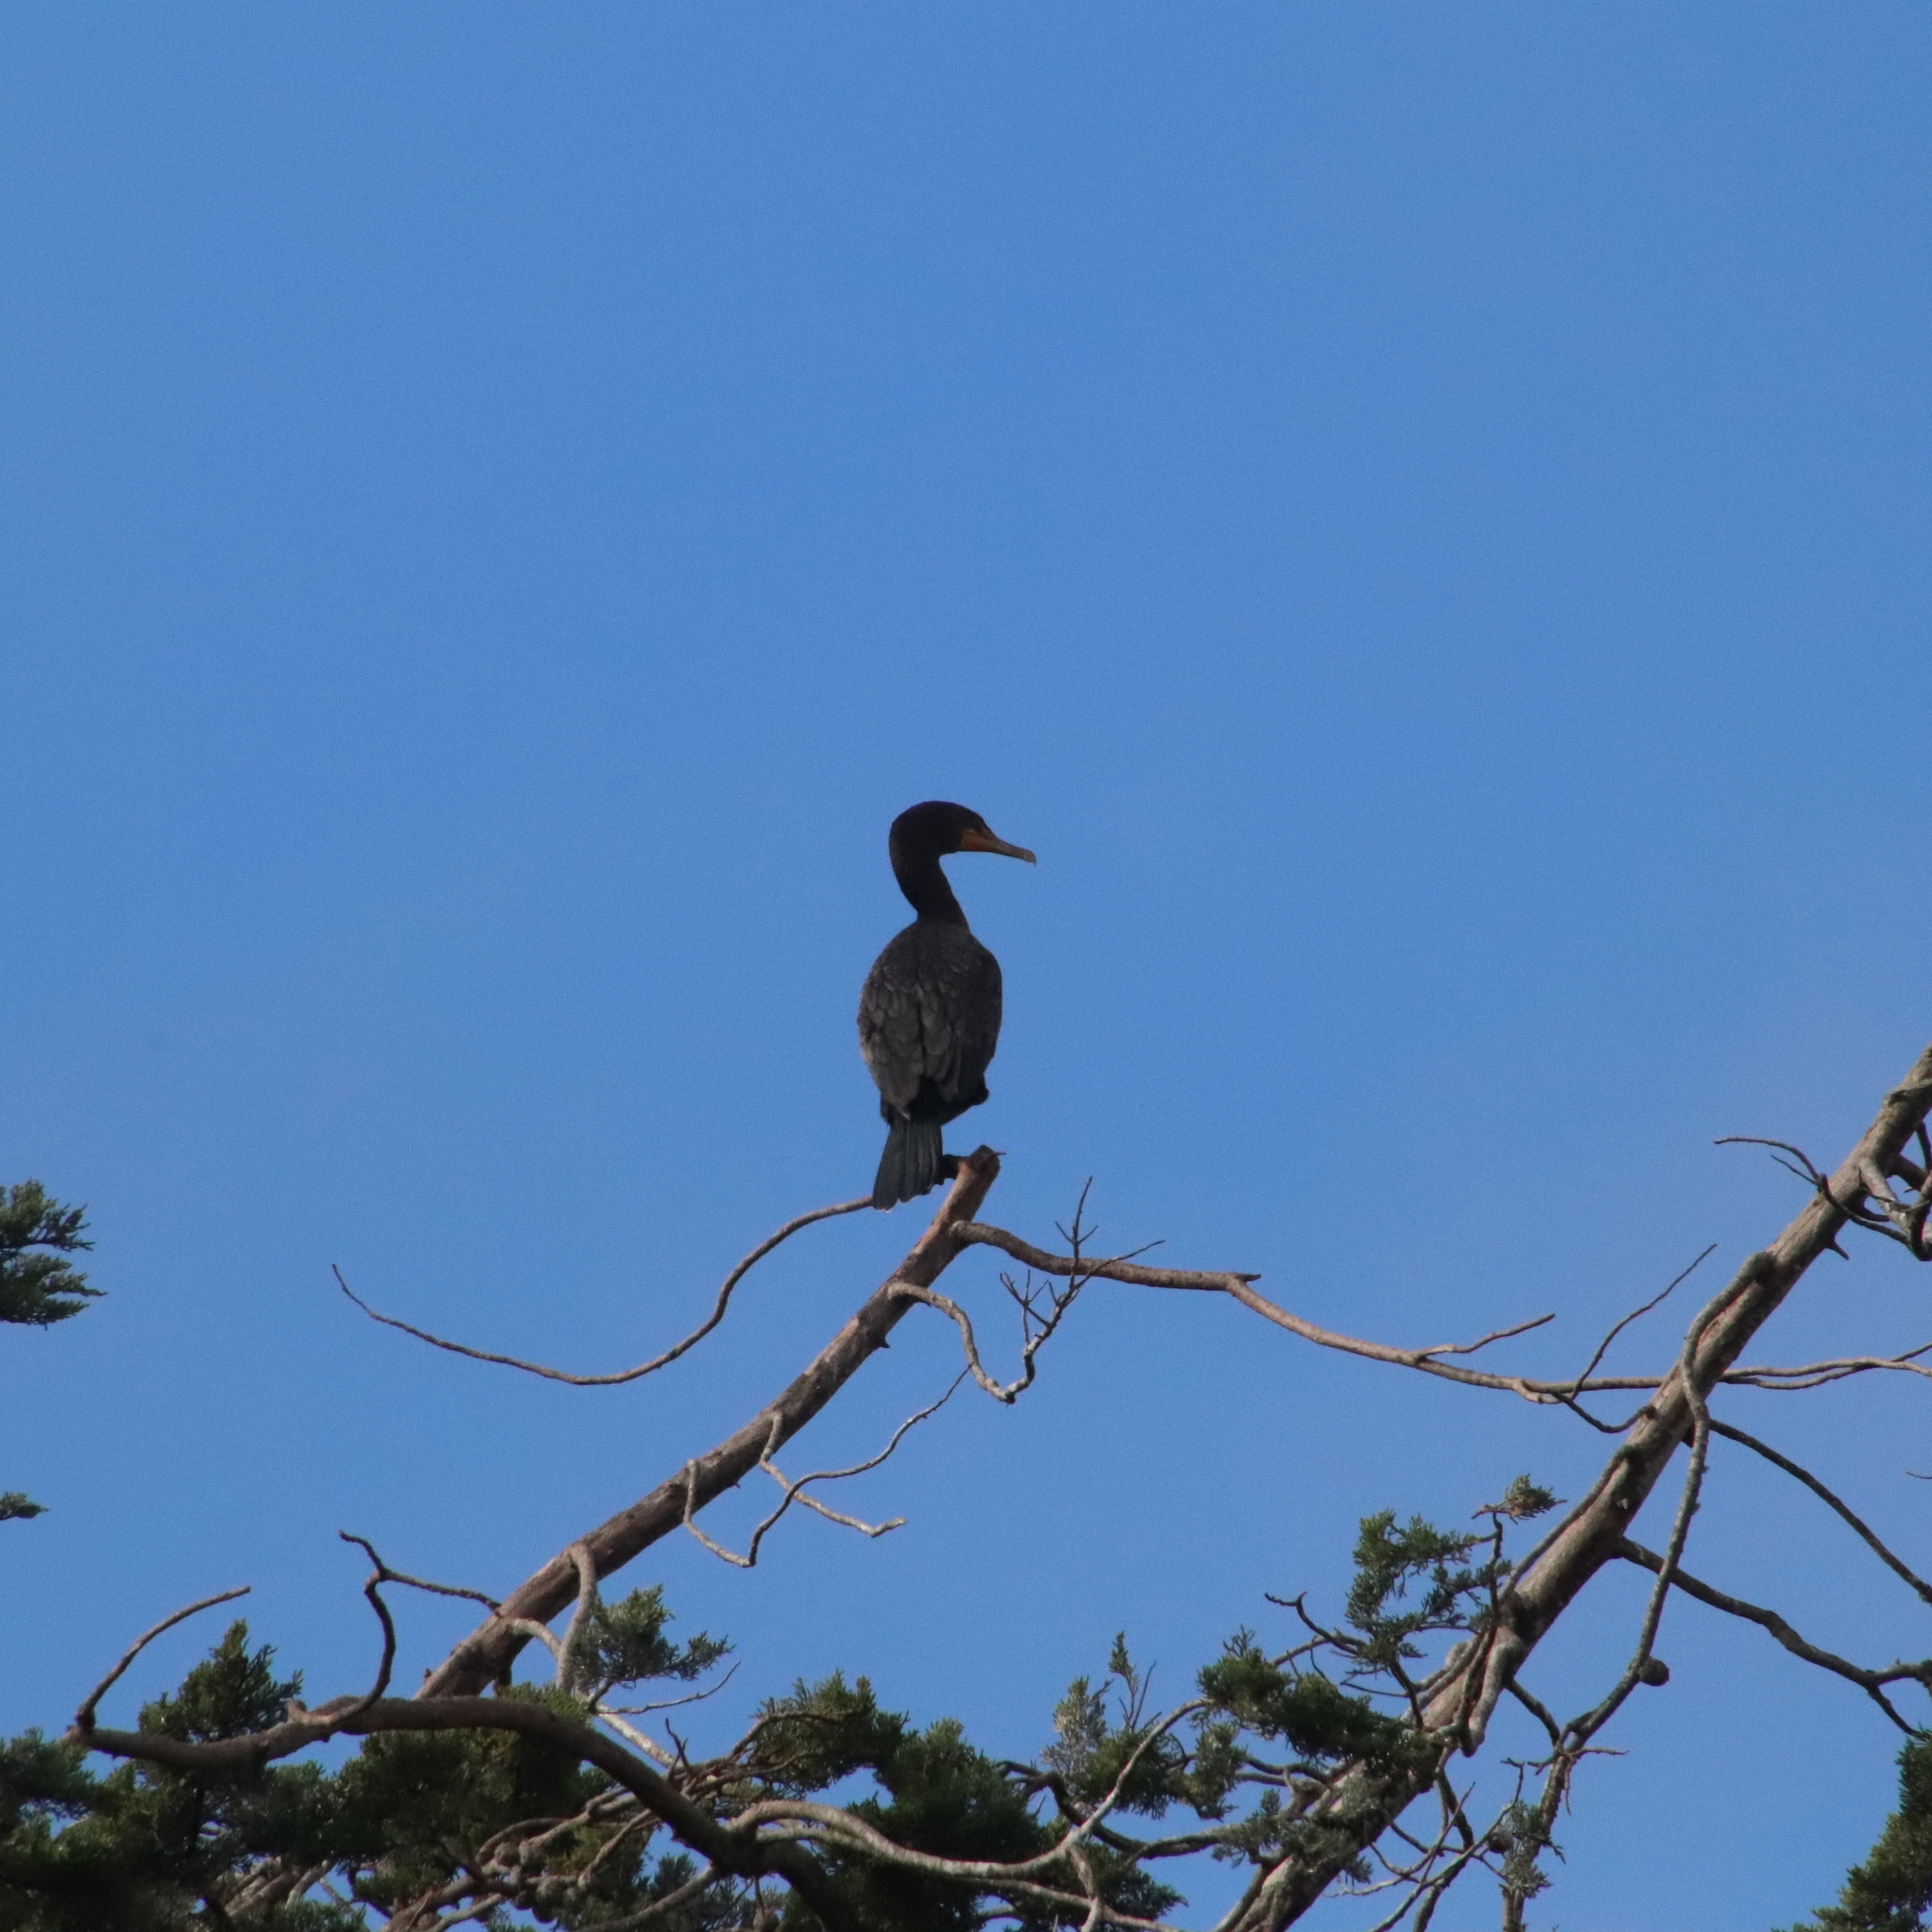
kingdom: Animalia
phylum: Chordata
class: Aves
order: Suliformes
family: Phalacrocoracidae
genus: Phalacrocorax
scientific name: Phalacrocorax auritus
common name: Double-crested cormorant
